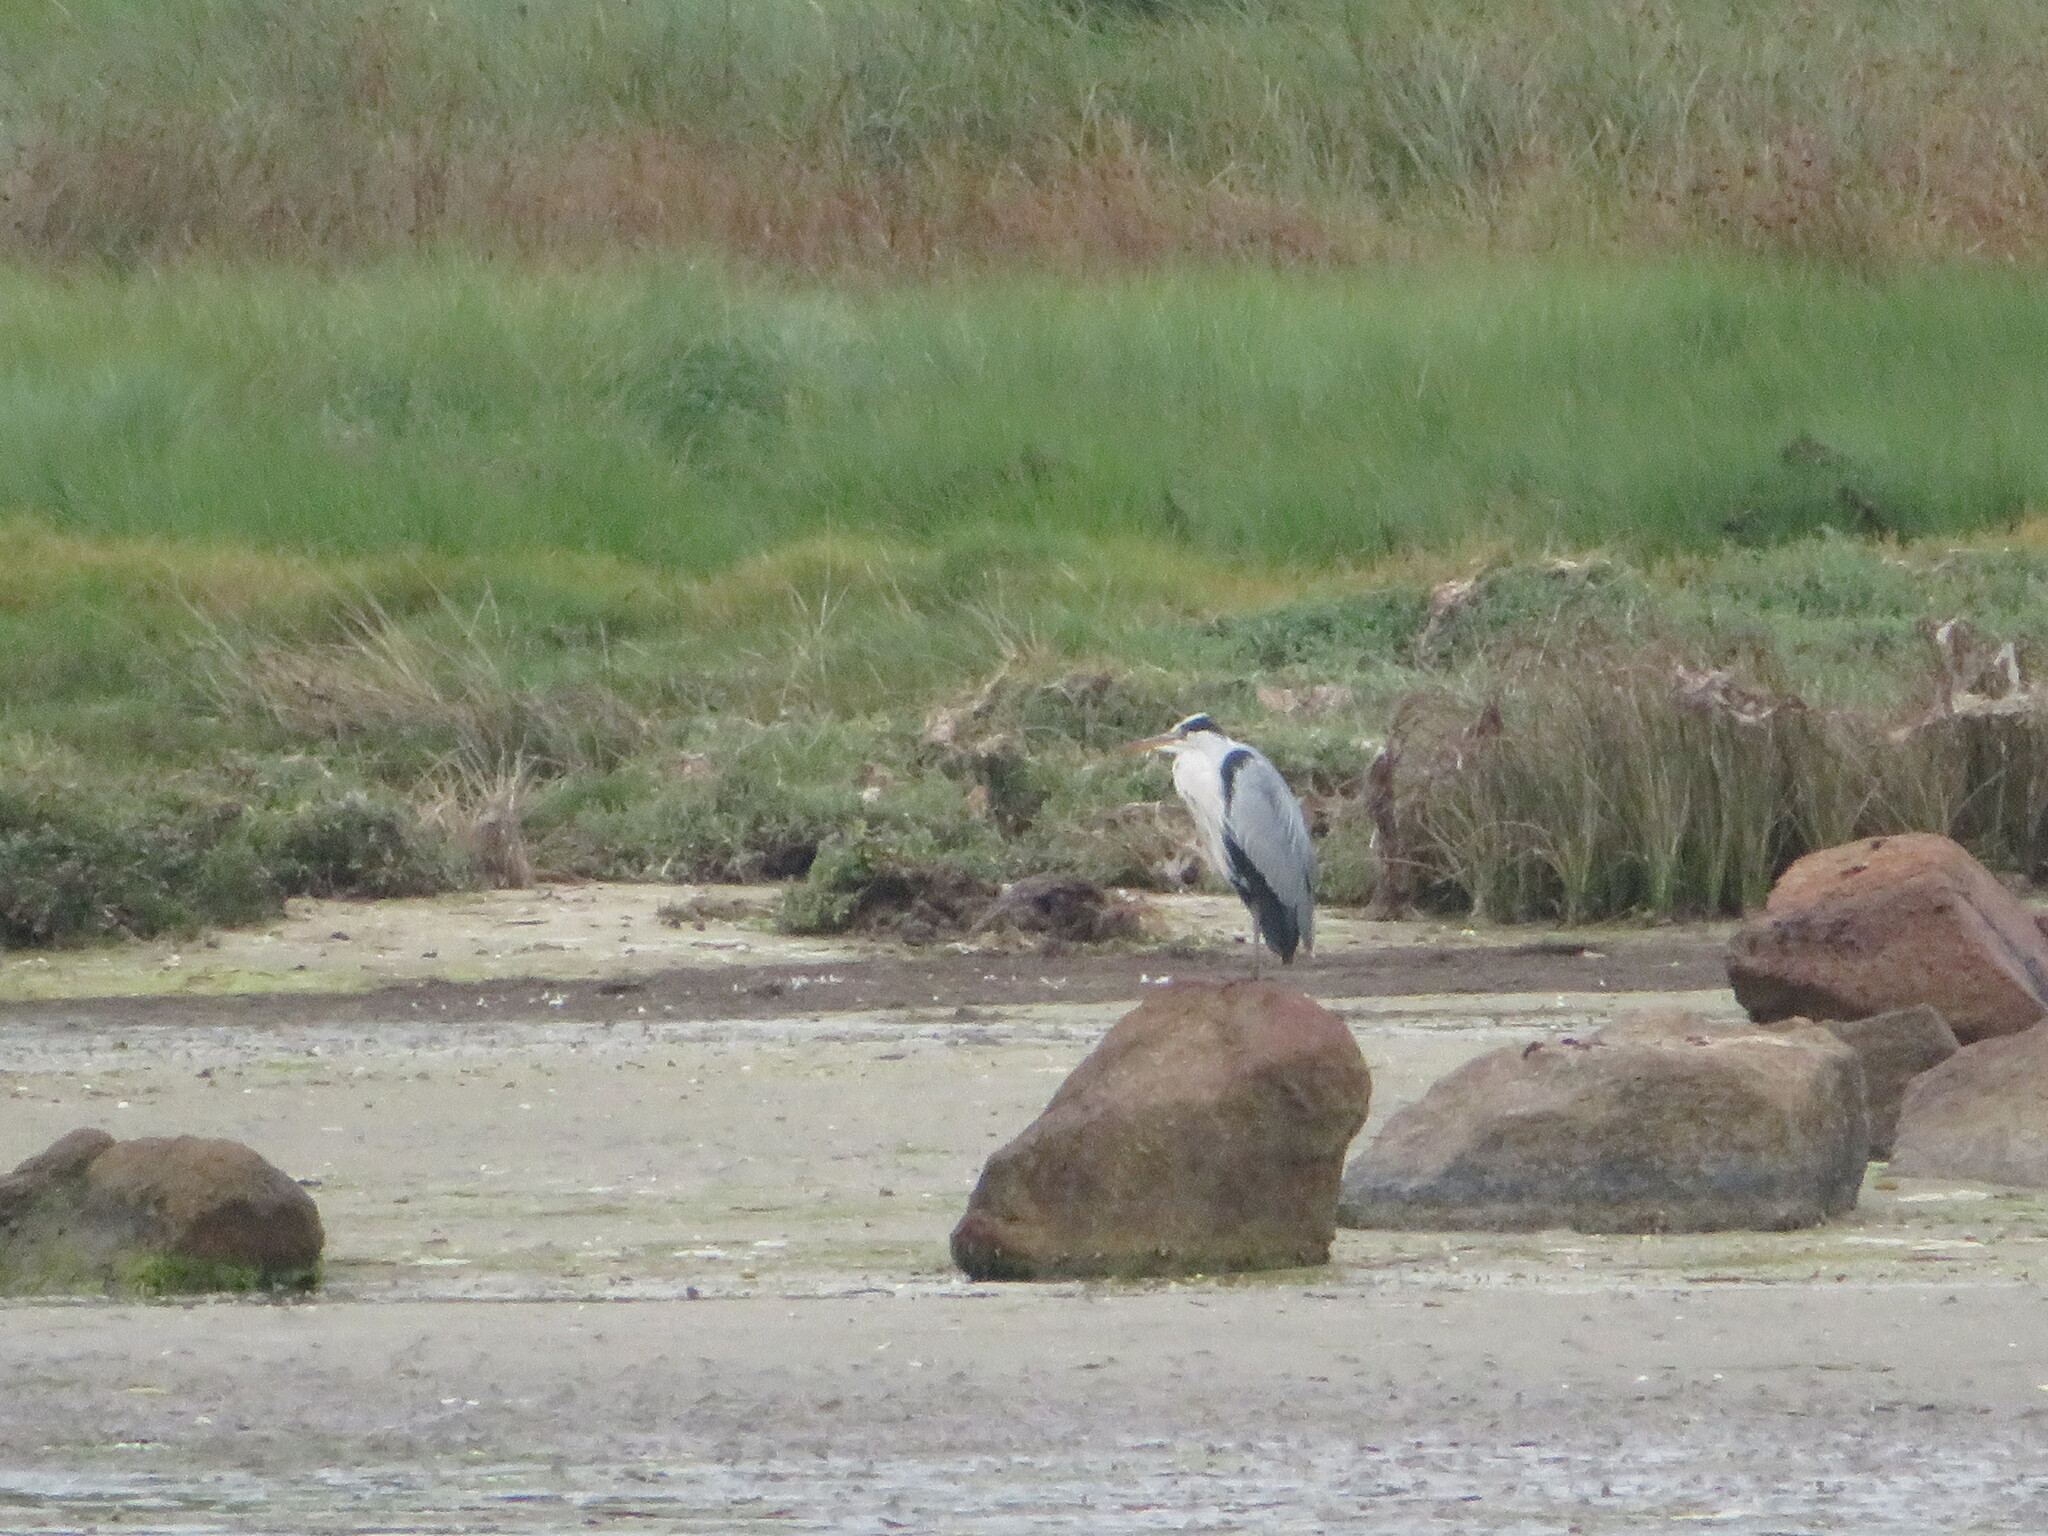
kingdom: Animalia
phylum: Chordata
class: Aves
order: Pelecaniformes
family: Ardeidae
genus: Ardea
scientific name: Ardea cinerea
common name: Grey heron
